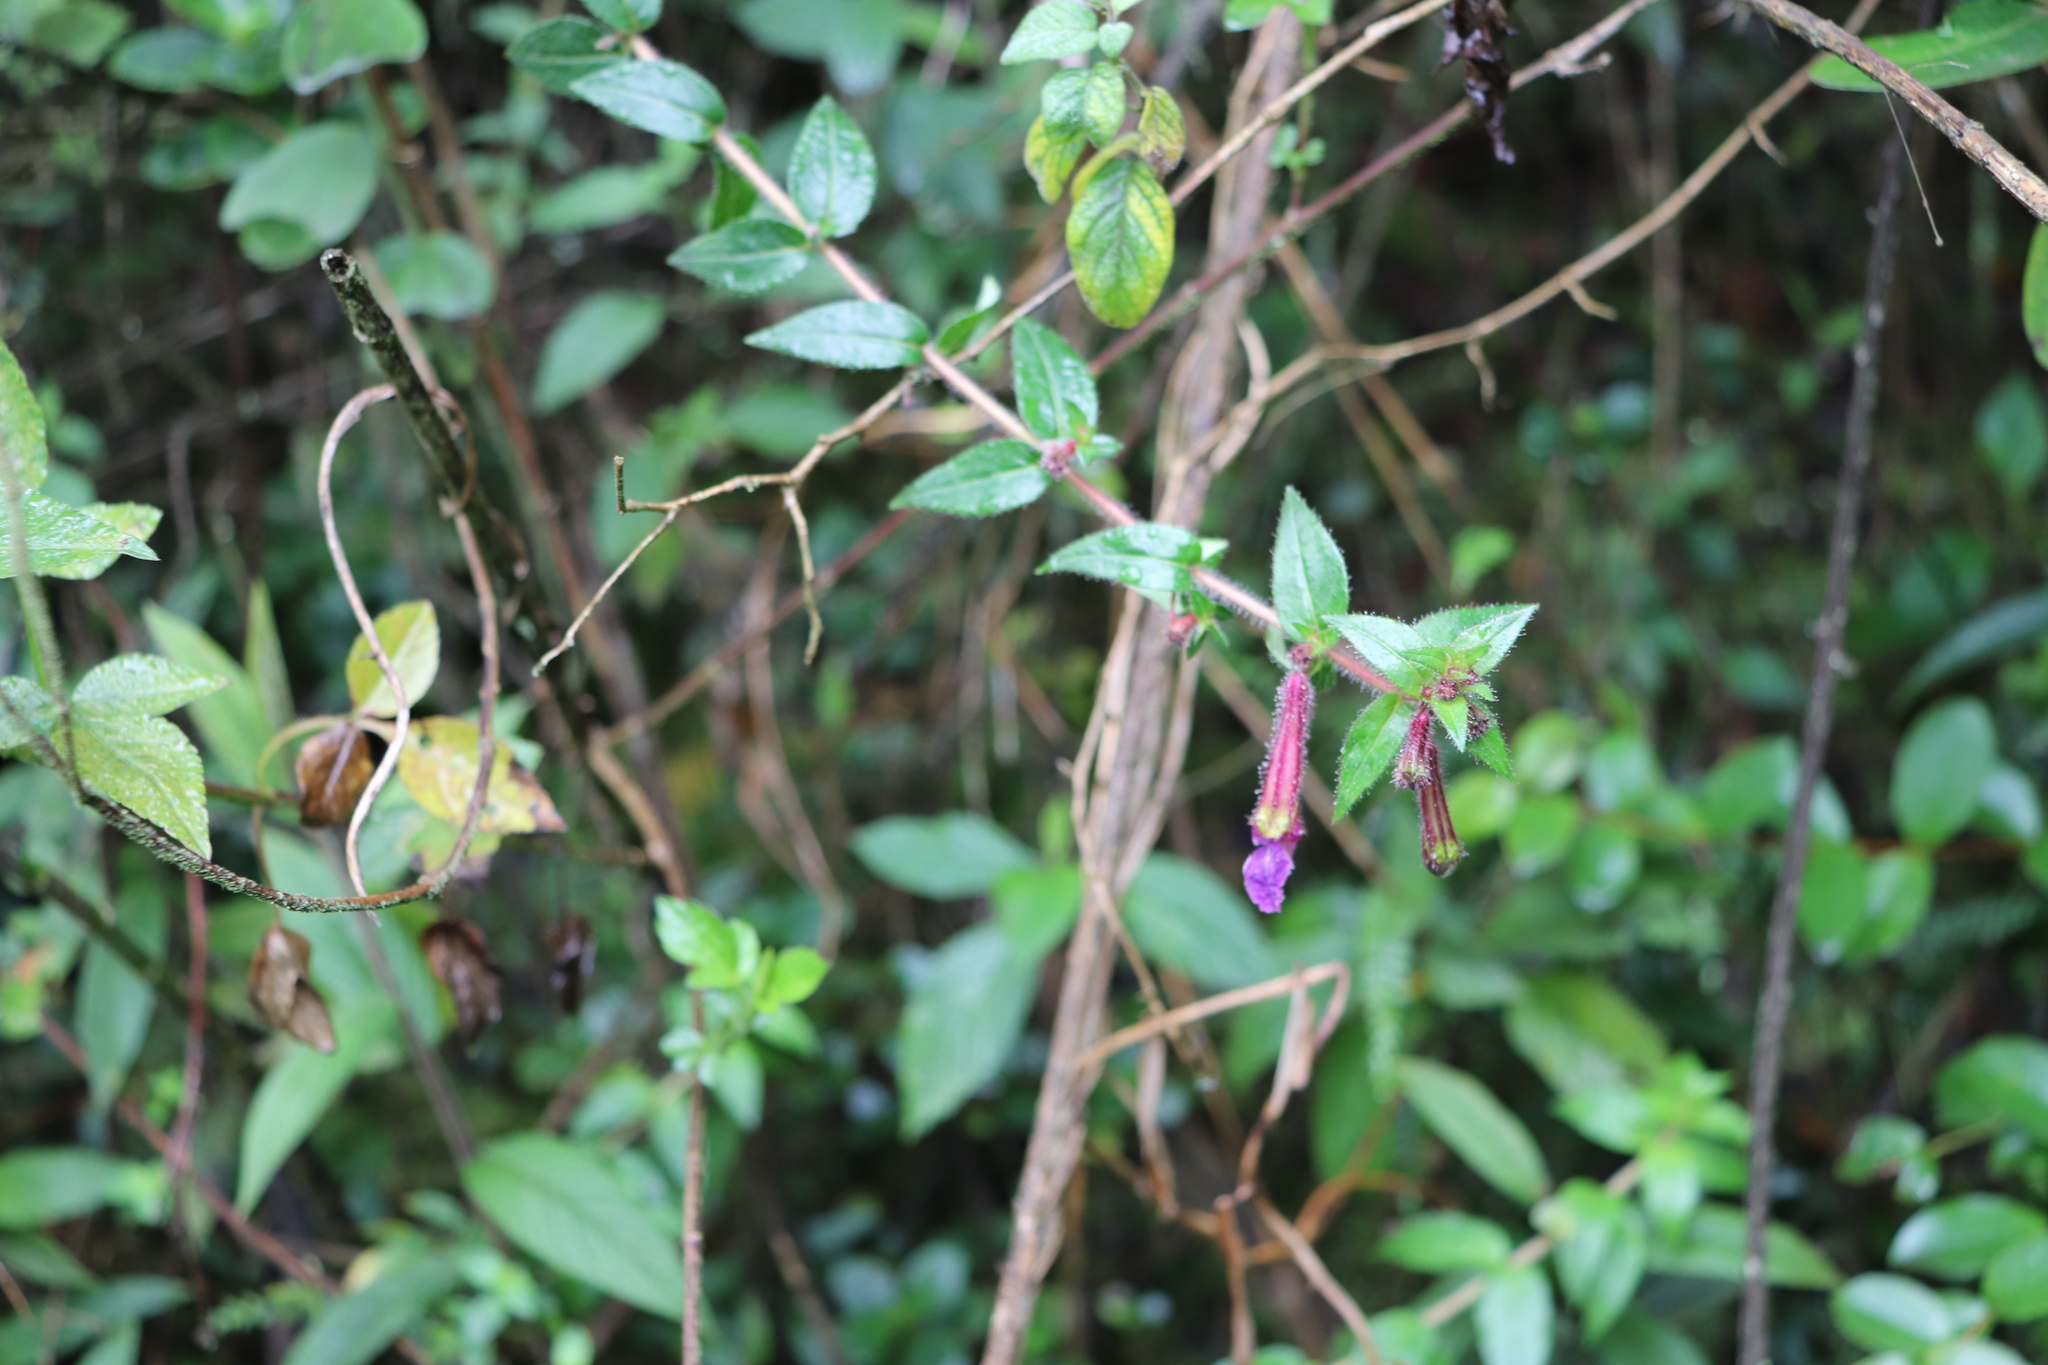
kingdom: Plantae
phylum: Tracheophyta
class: Magnoliopsida
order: Myrtales
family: Lythraceae
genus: Cuphea
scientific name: Cuphea dipetala
